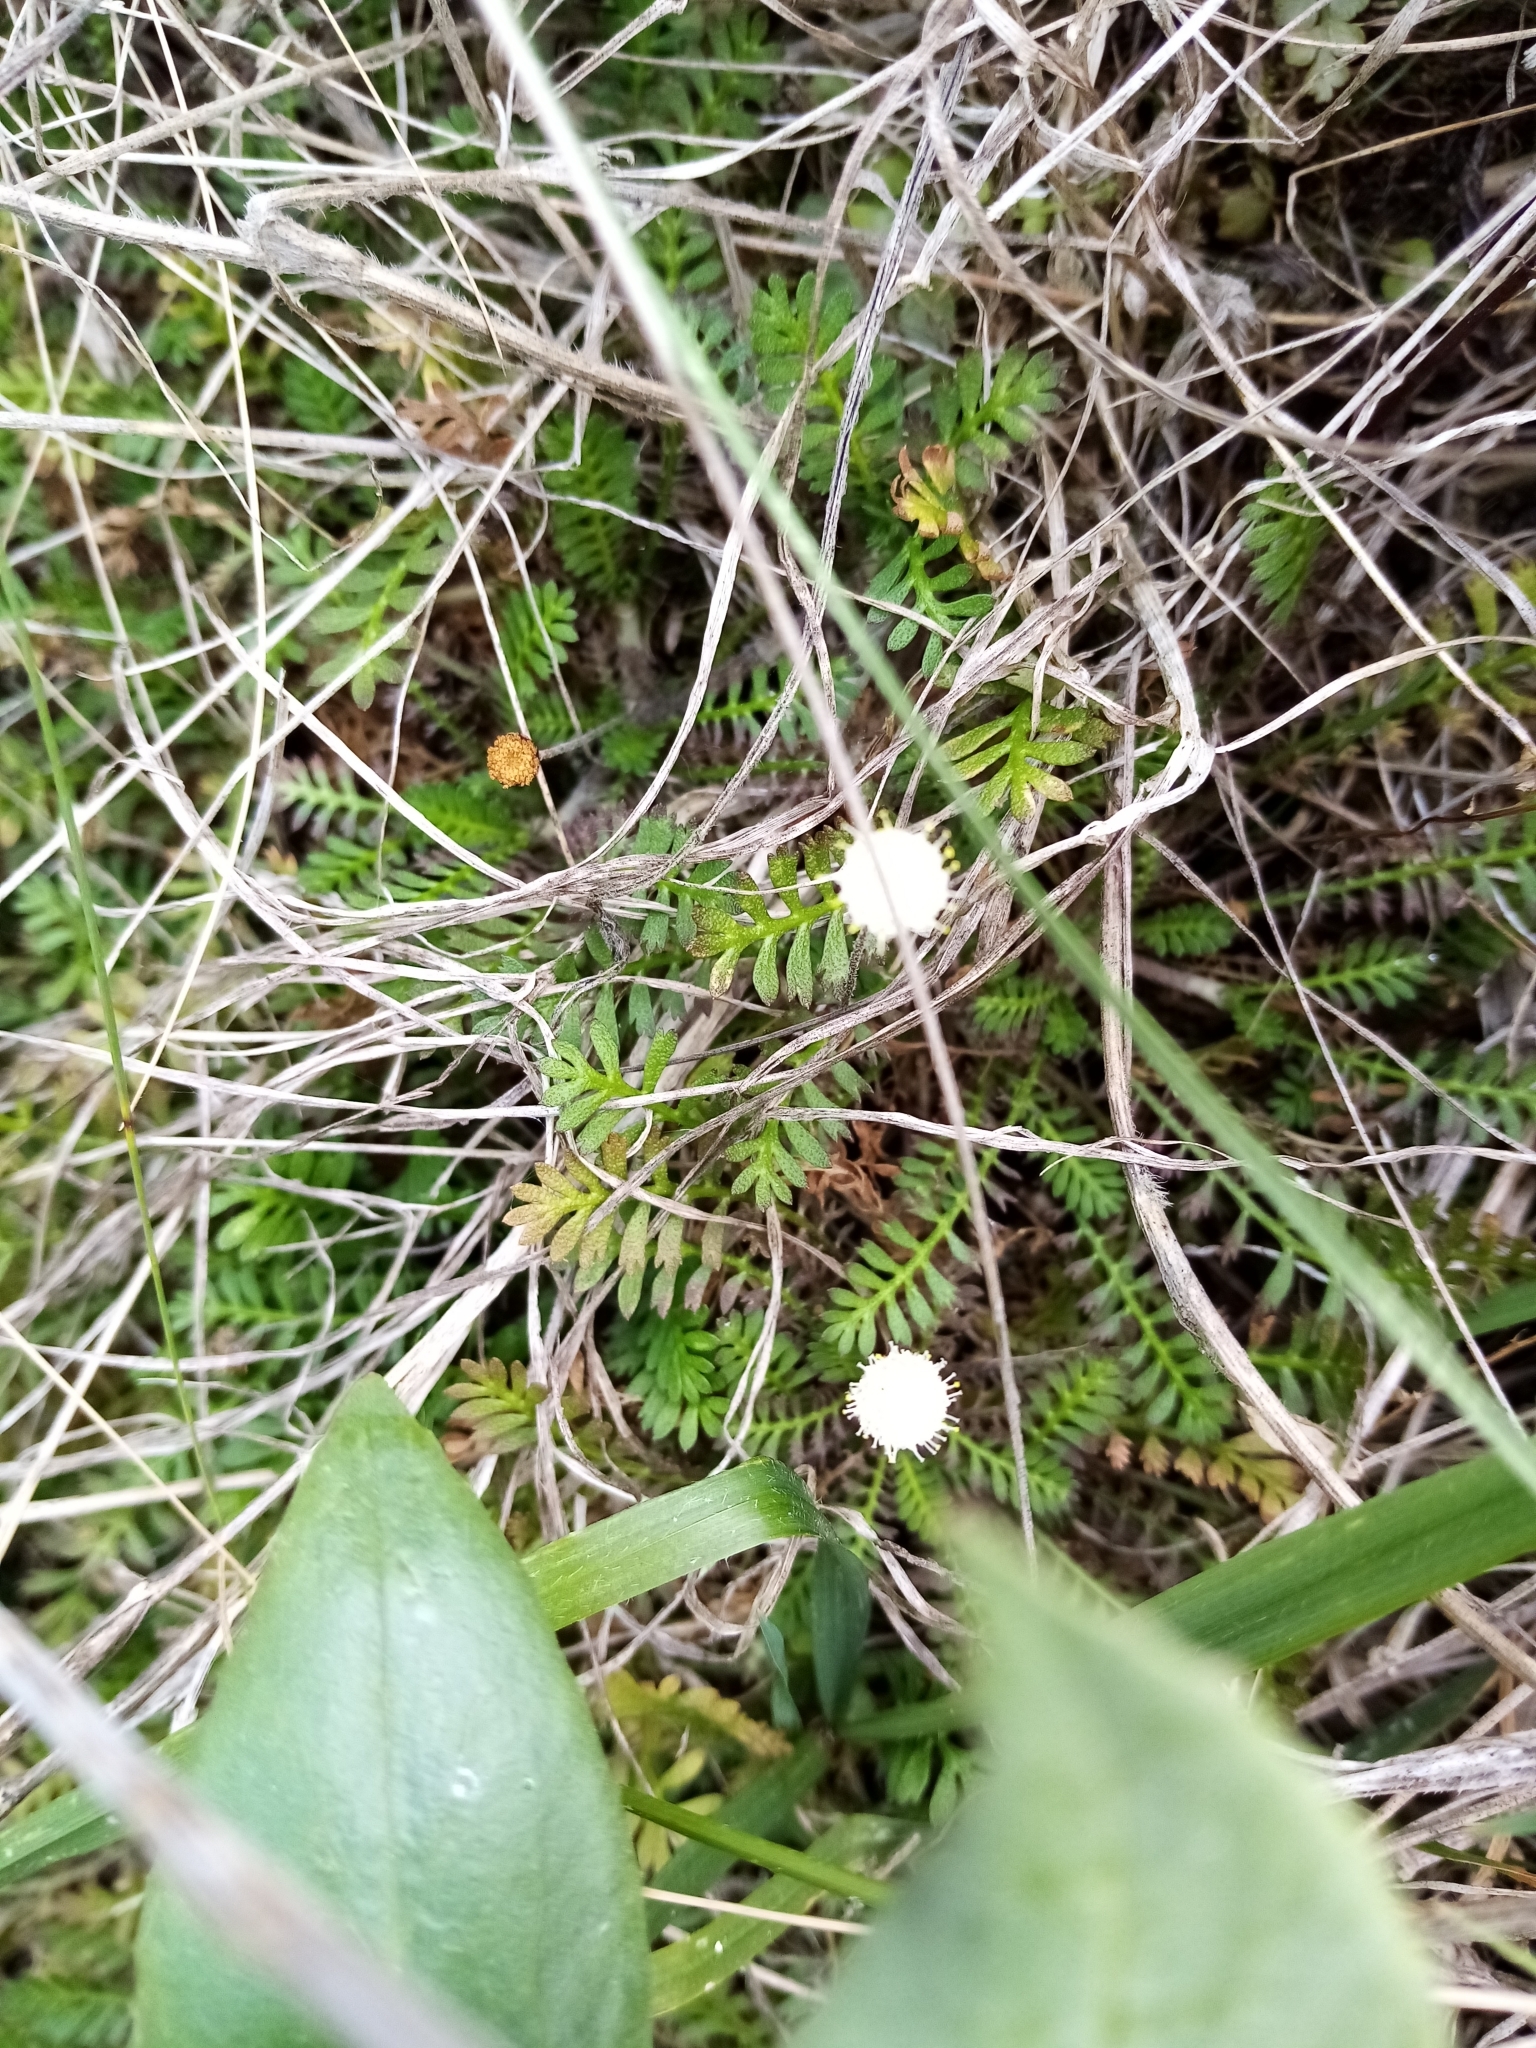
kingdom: Plantae
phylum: Tracheophyta
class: Magnoliopsida
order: Asterales
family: Asteraceae
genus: Leptinella
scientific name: Leptinella minor
